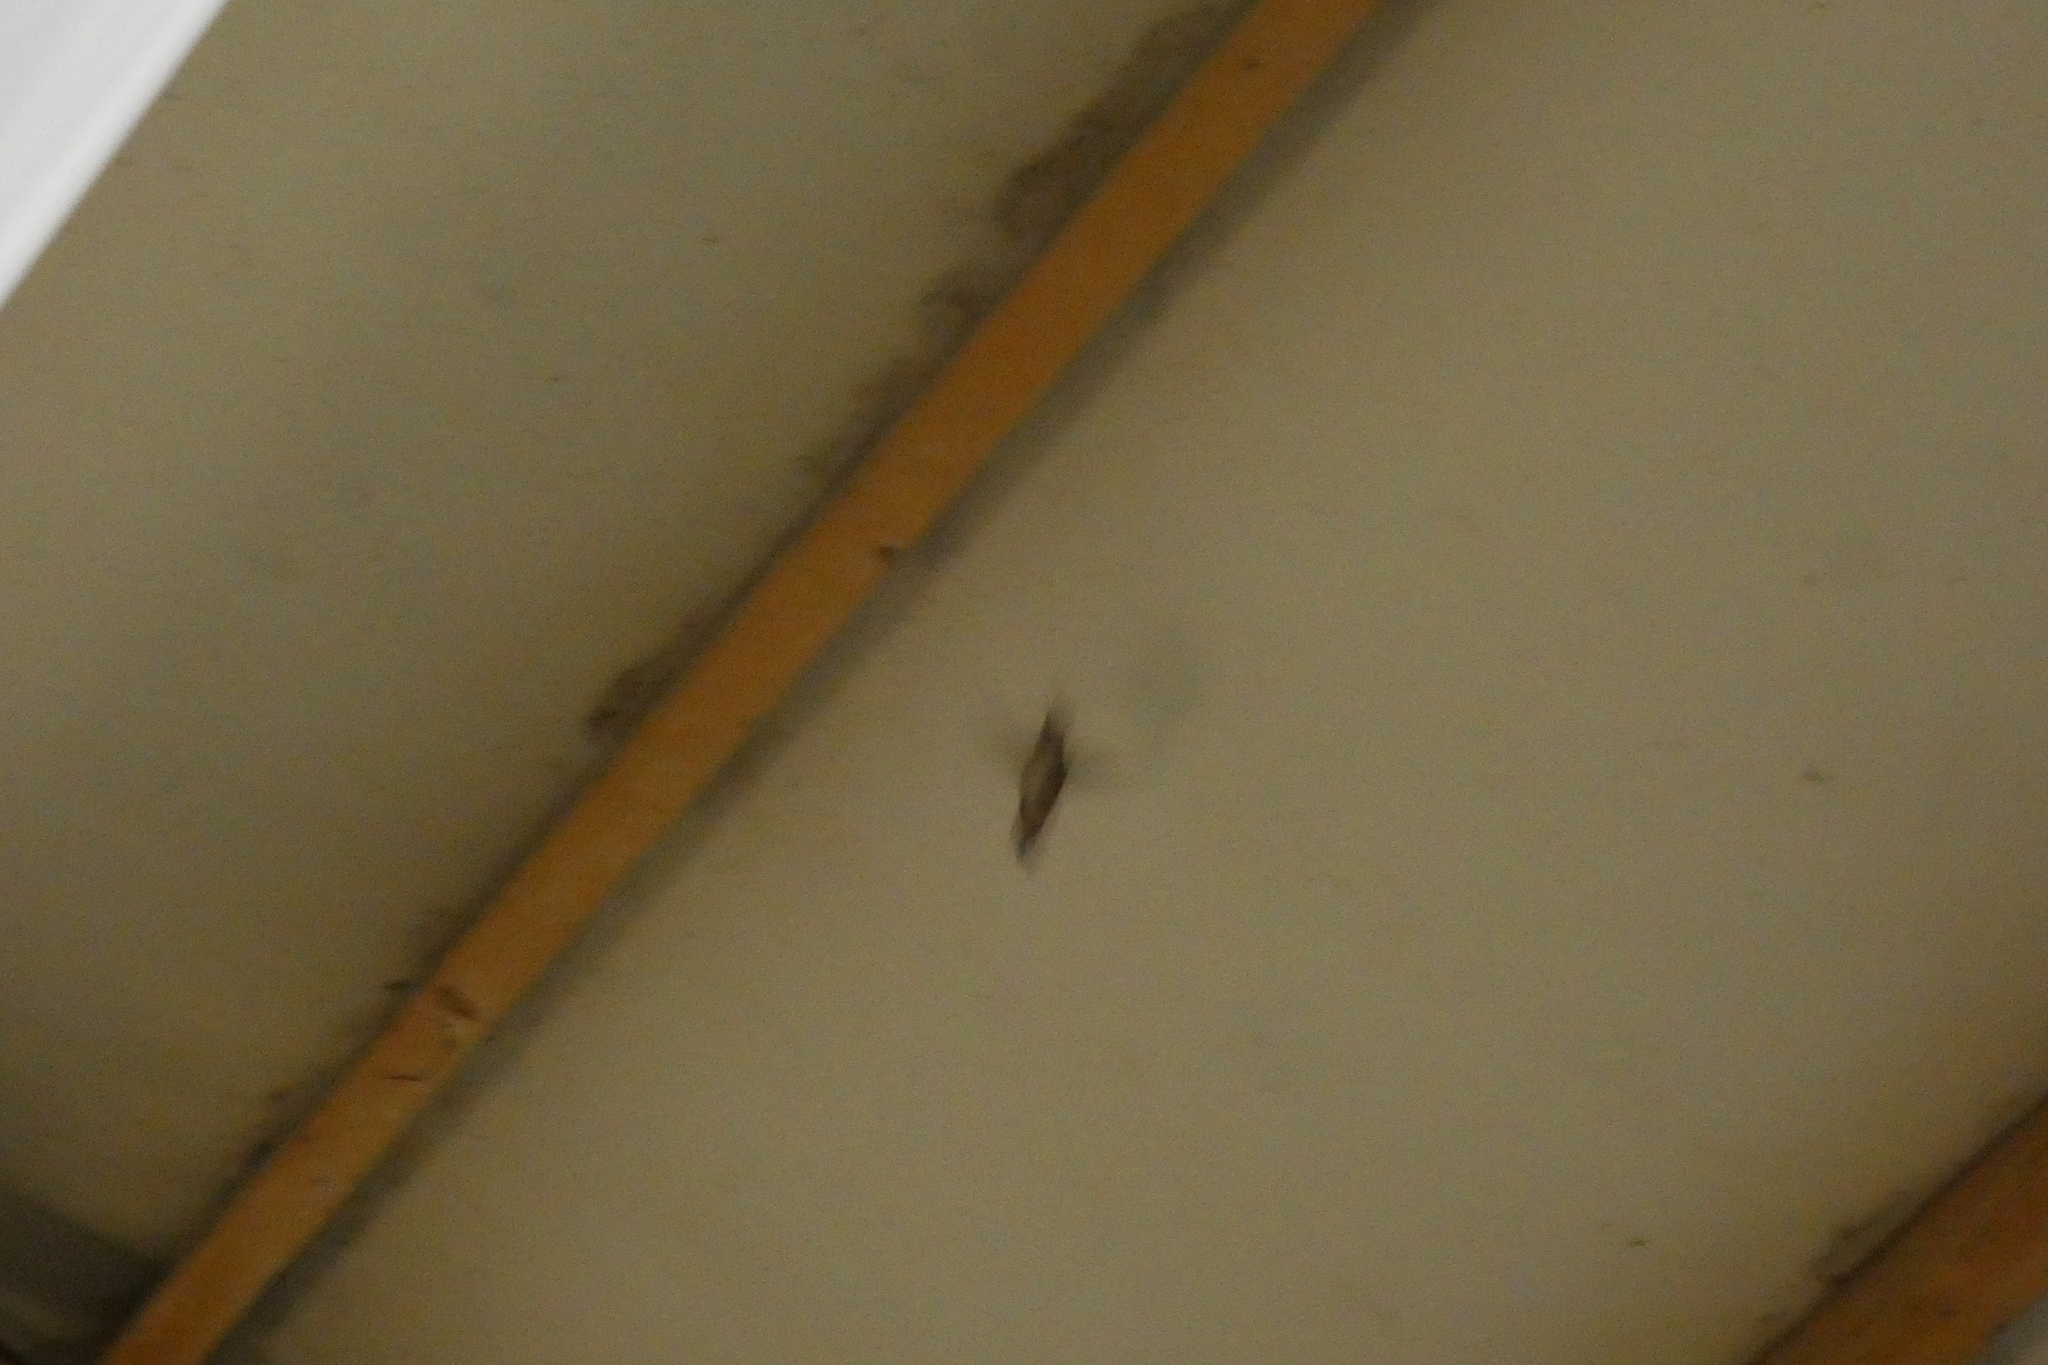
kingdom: Animalia
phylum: Chordata
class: Aves
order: Apodiformes
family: Trochilidae
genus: Selasphorus
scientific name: Selasphorus rufus
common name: Rufous hummingbird
